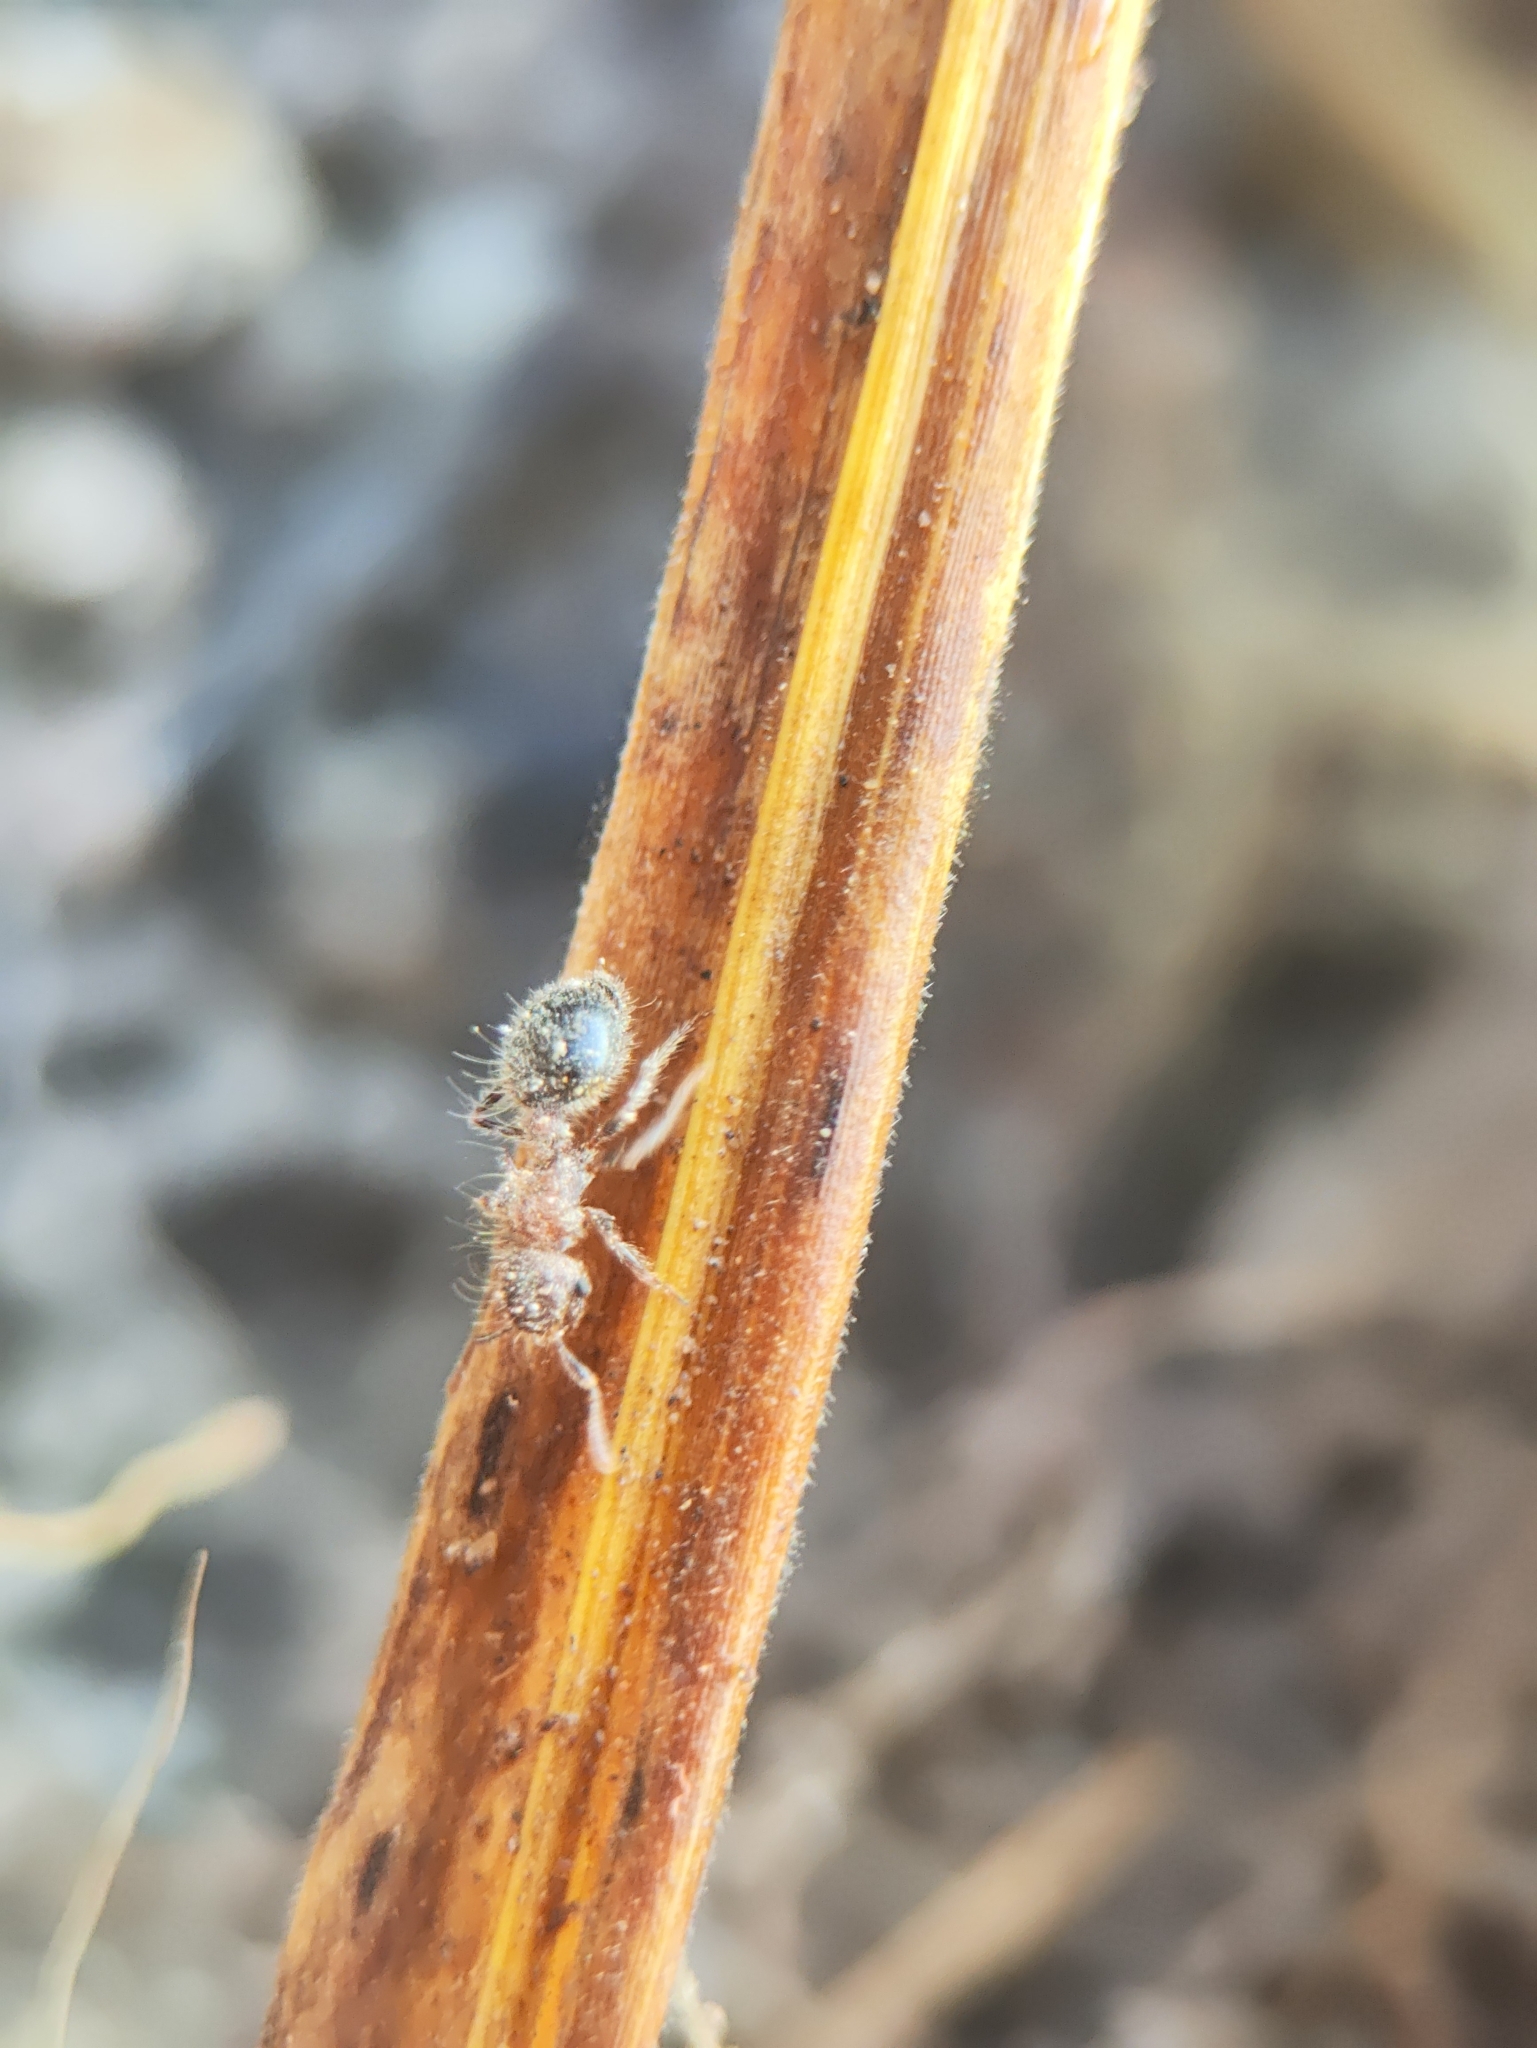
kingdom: Animalia
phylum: Arthropoda
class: Insecta
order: Hymenoptera
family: Formicidae
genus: Meranoplus
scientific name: Meranoplus bicolor
